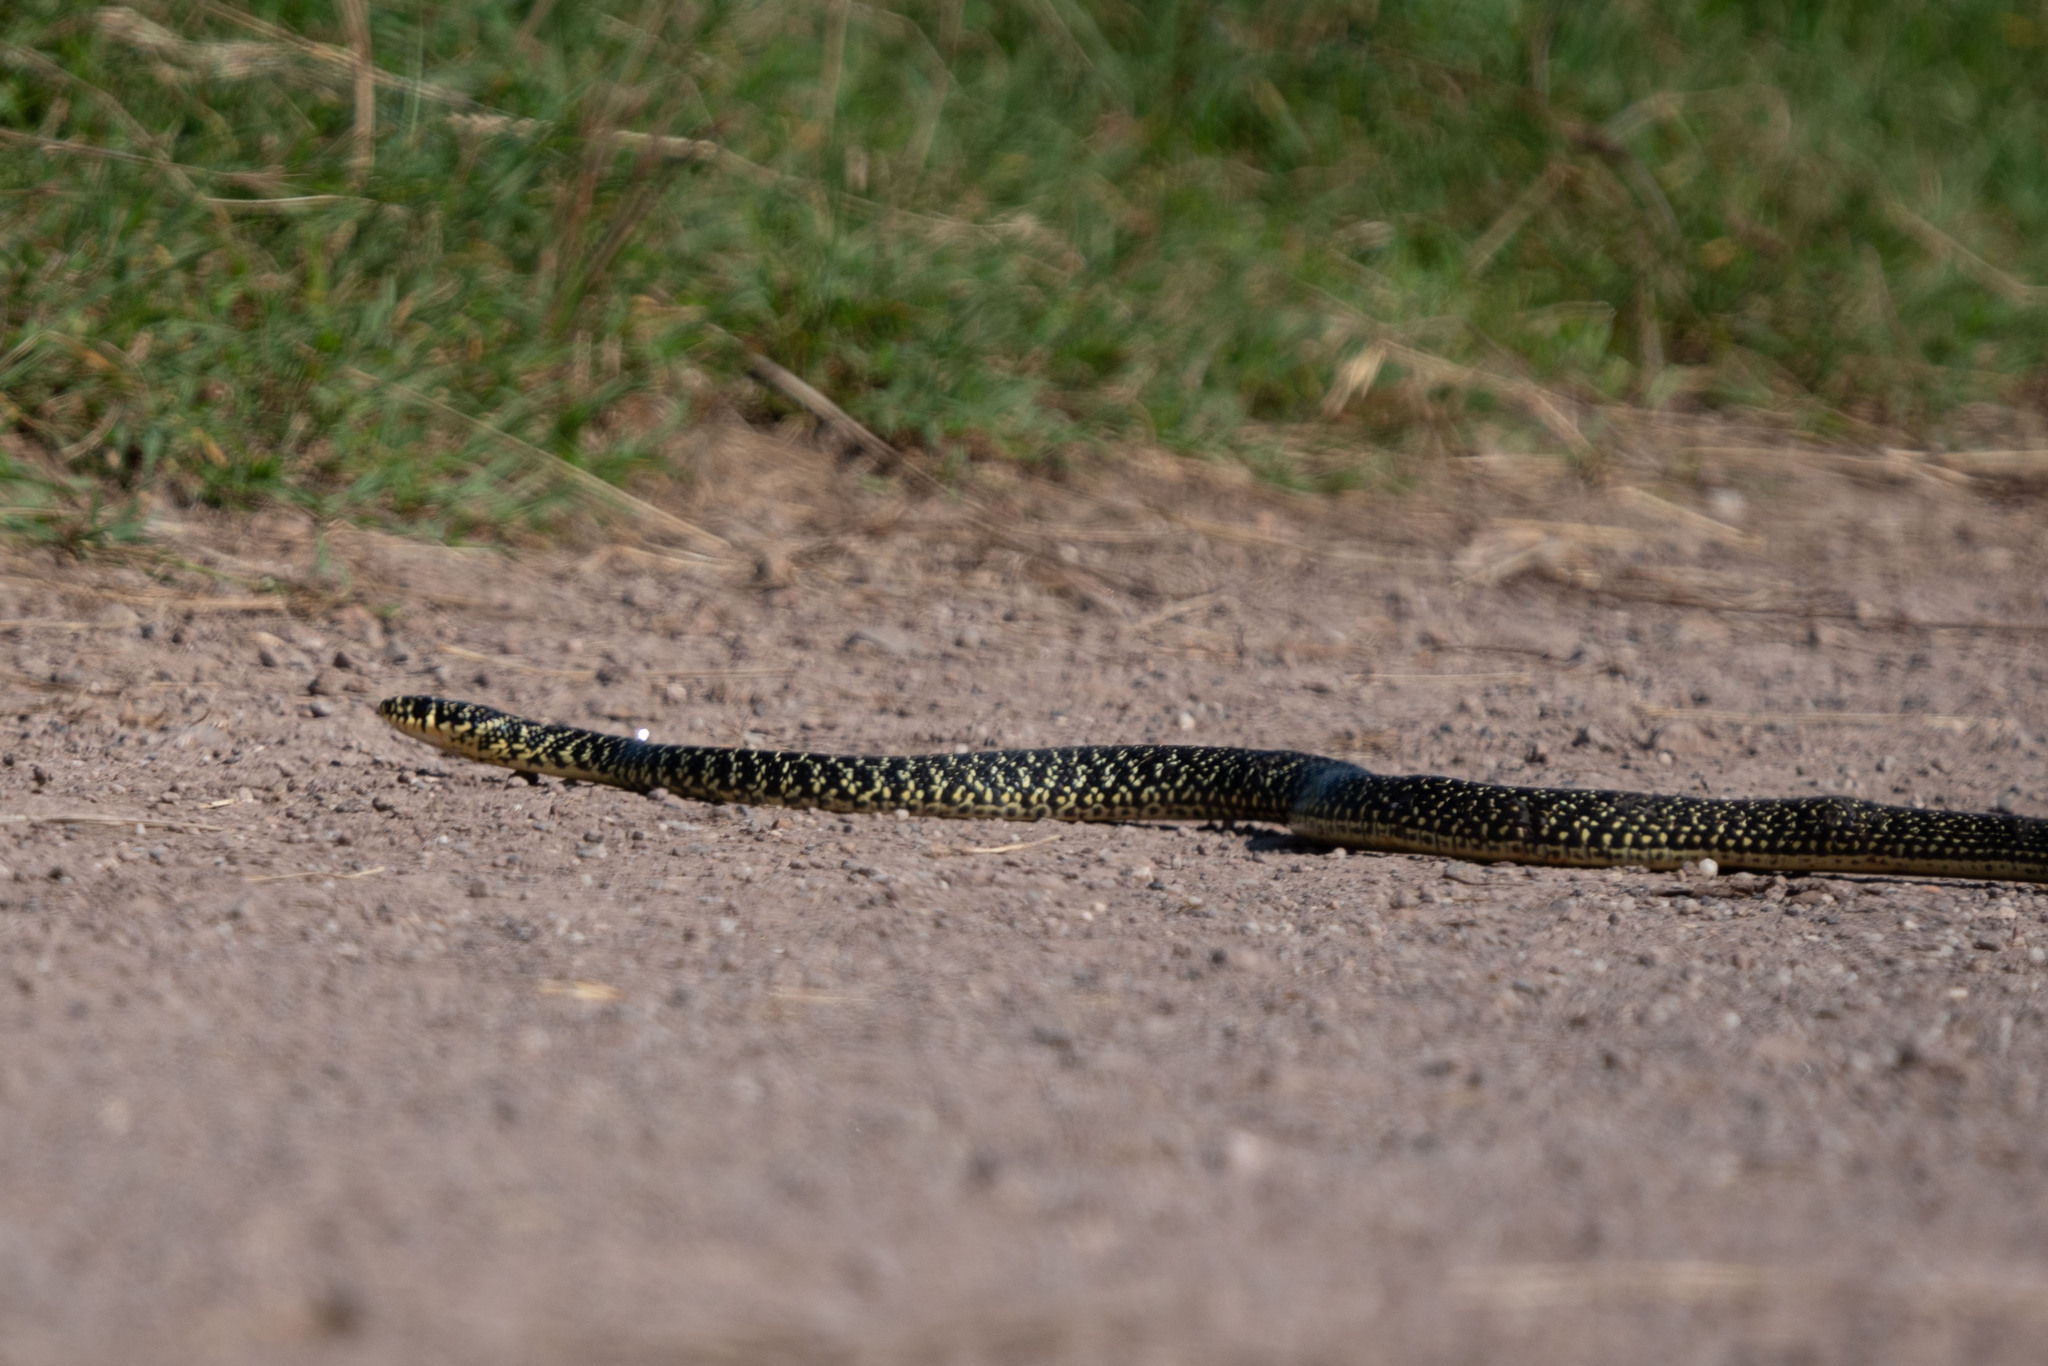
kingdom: Animalia
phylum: Chordata
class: Squamata
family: Colubridae
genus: Hierophis
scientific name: Hierophis viridiflavus
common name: Green whip snake
